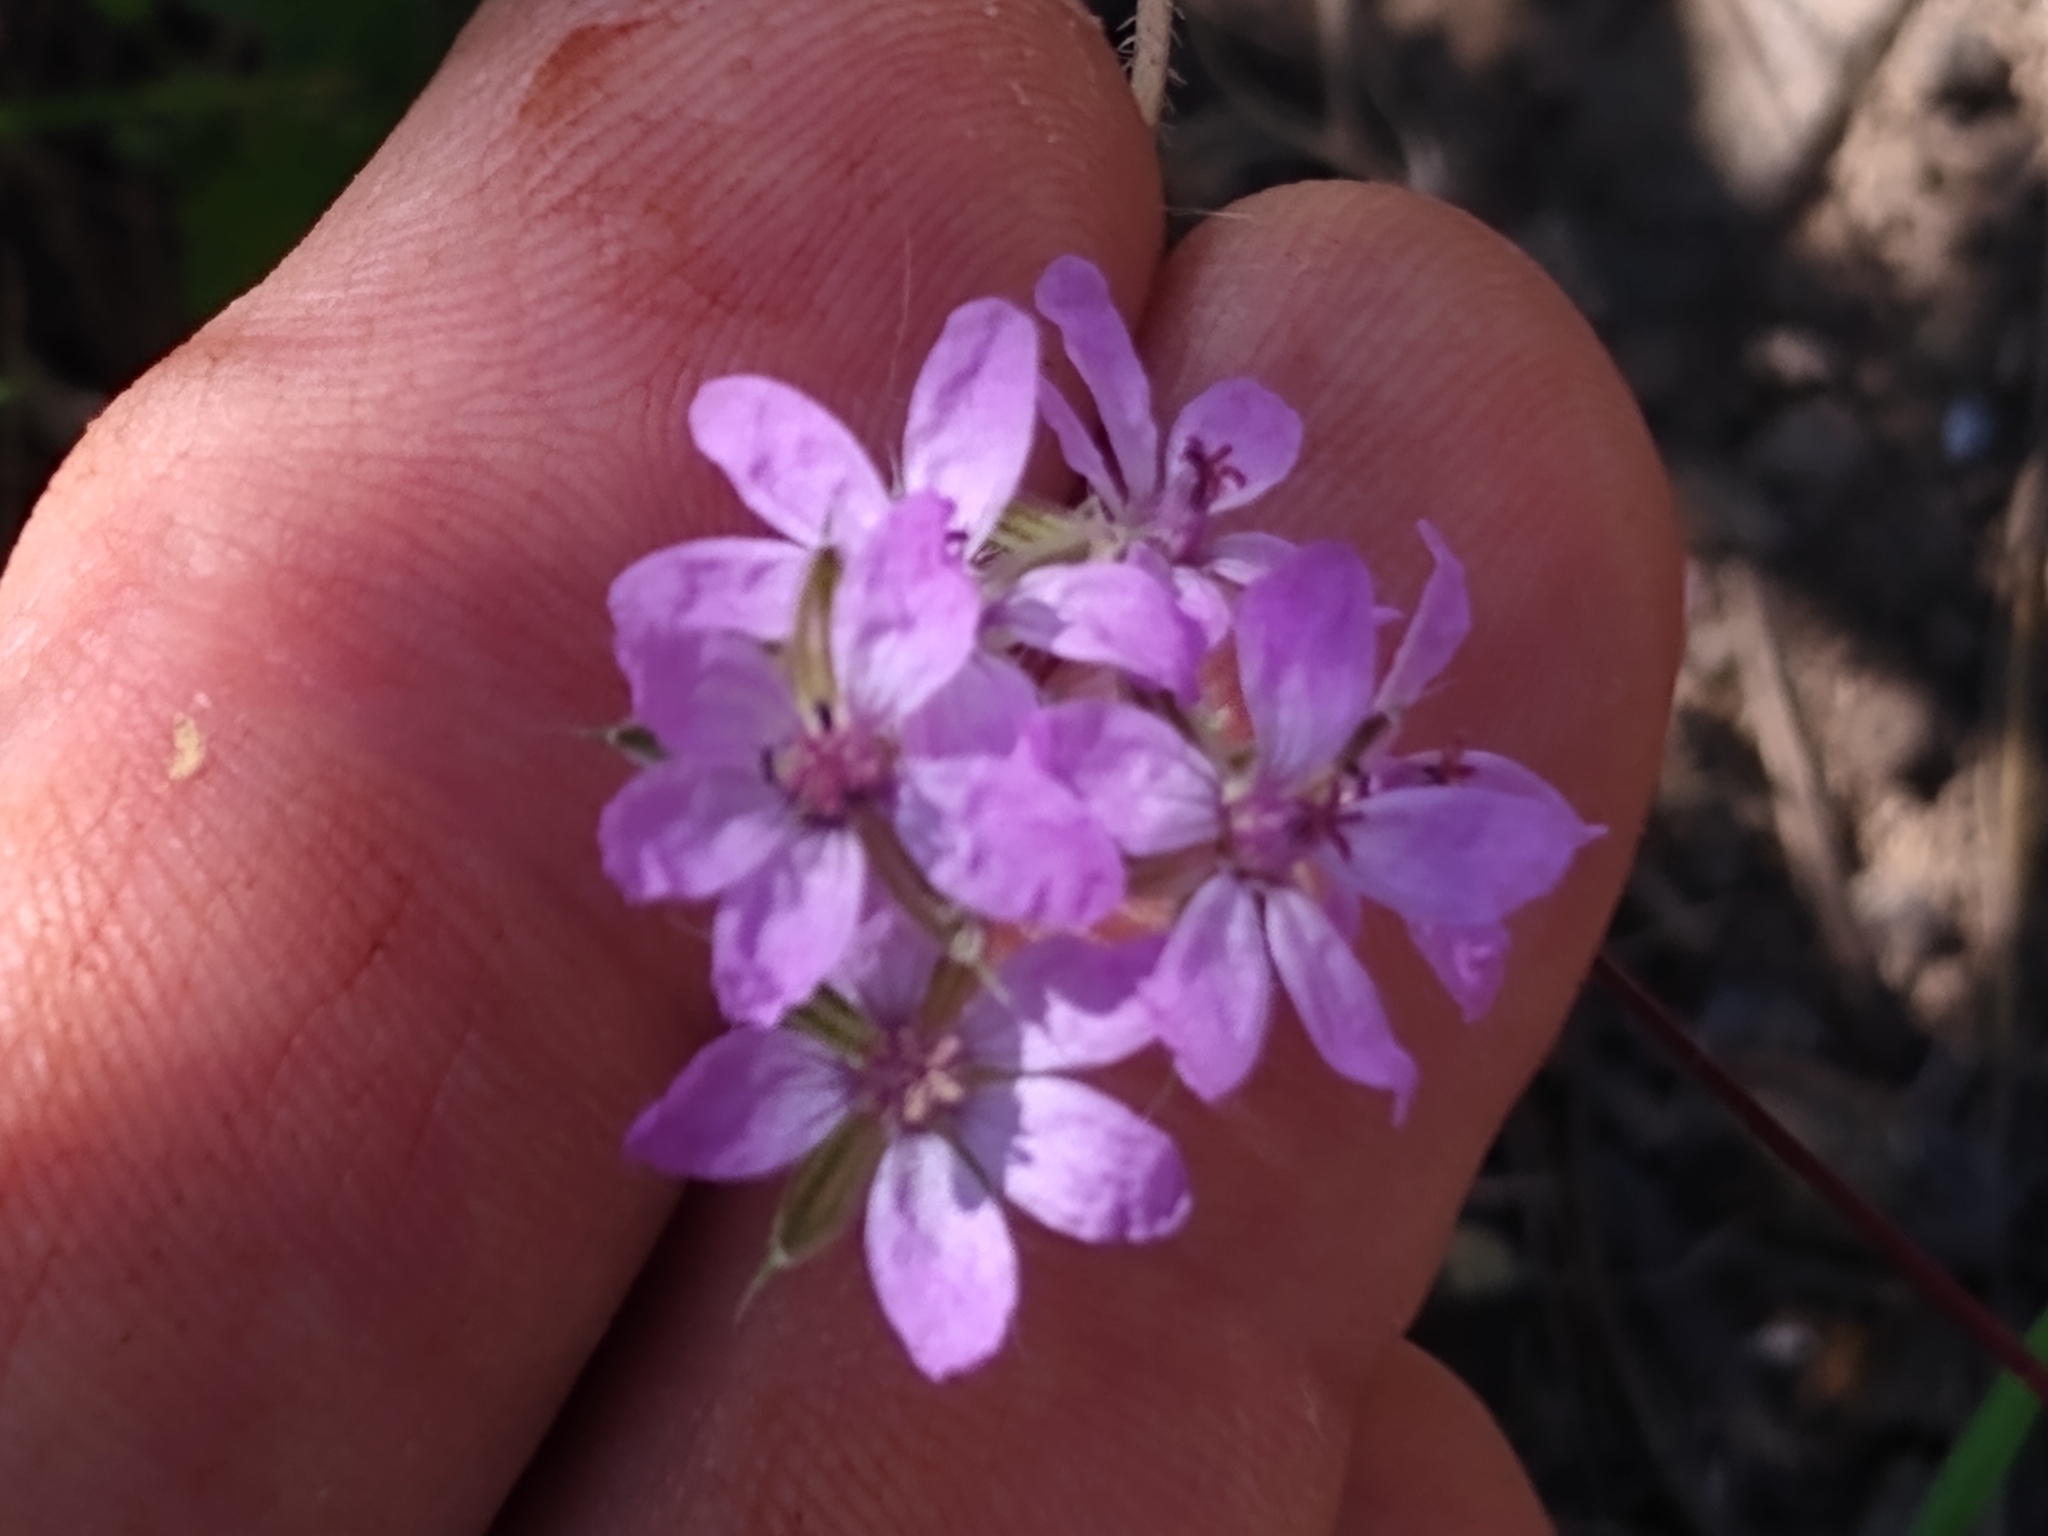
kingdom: Plantae
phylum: Tracheophyta
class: Magnoliopsida
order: Geraniales
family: Geraniaceae
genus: Erodium
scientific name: Erodium cicutarium
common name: Common stork's-bill
